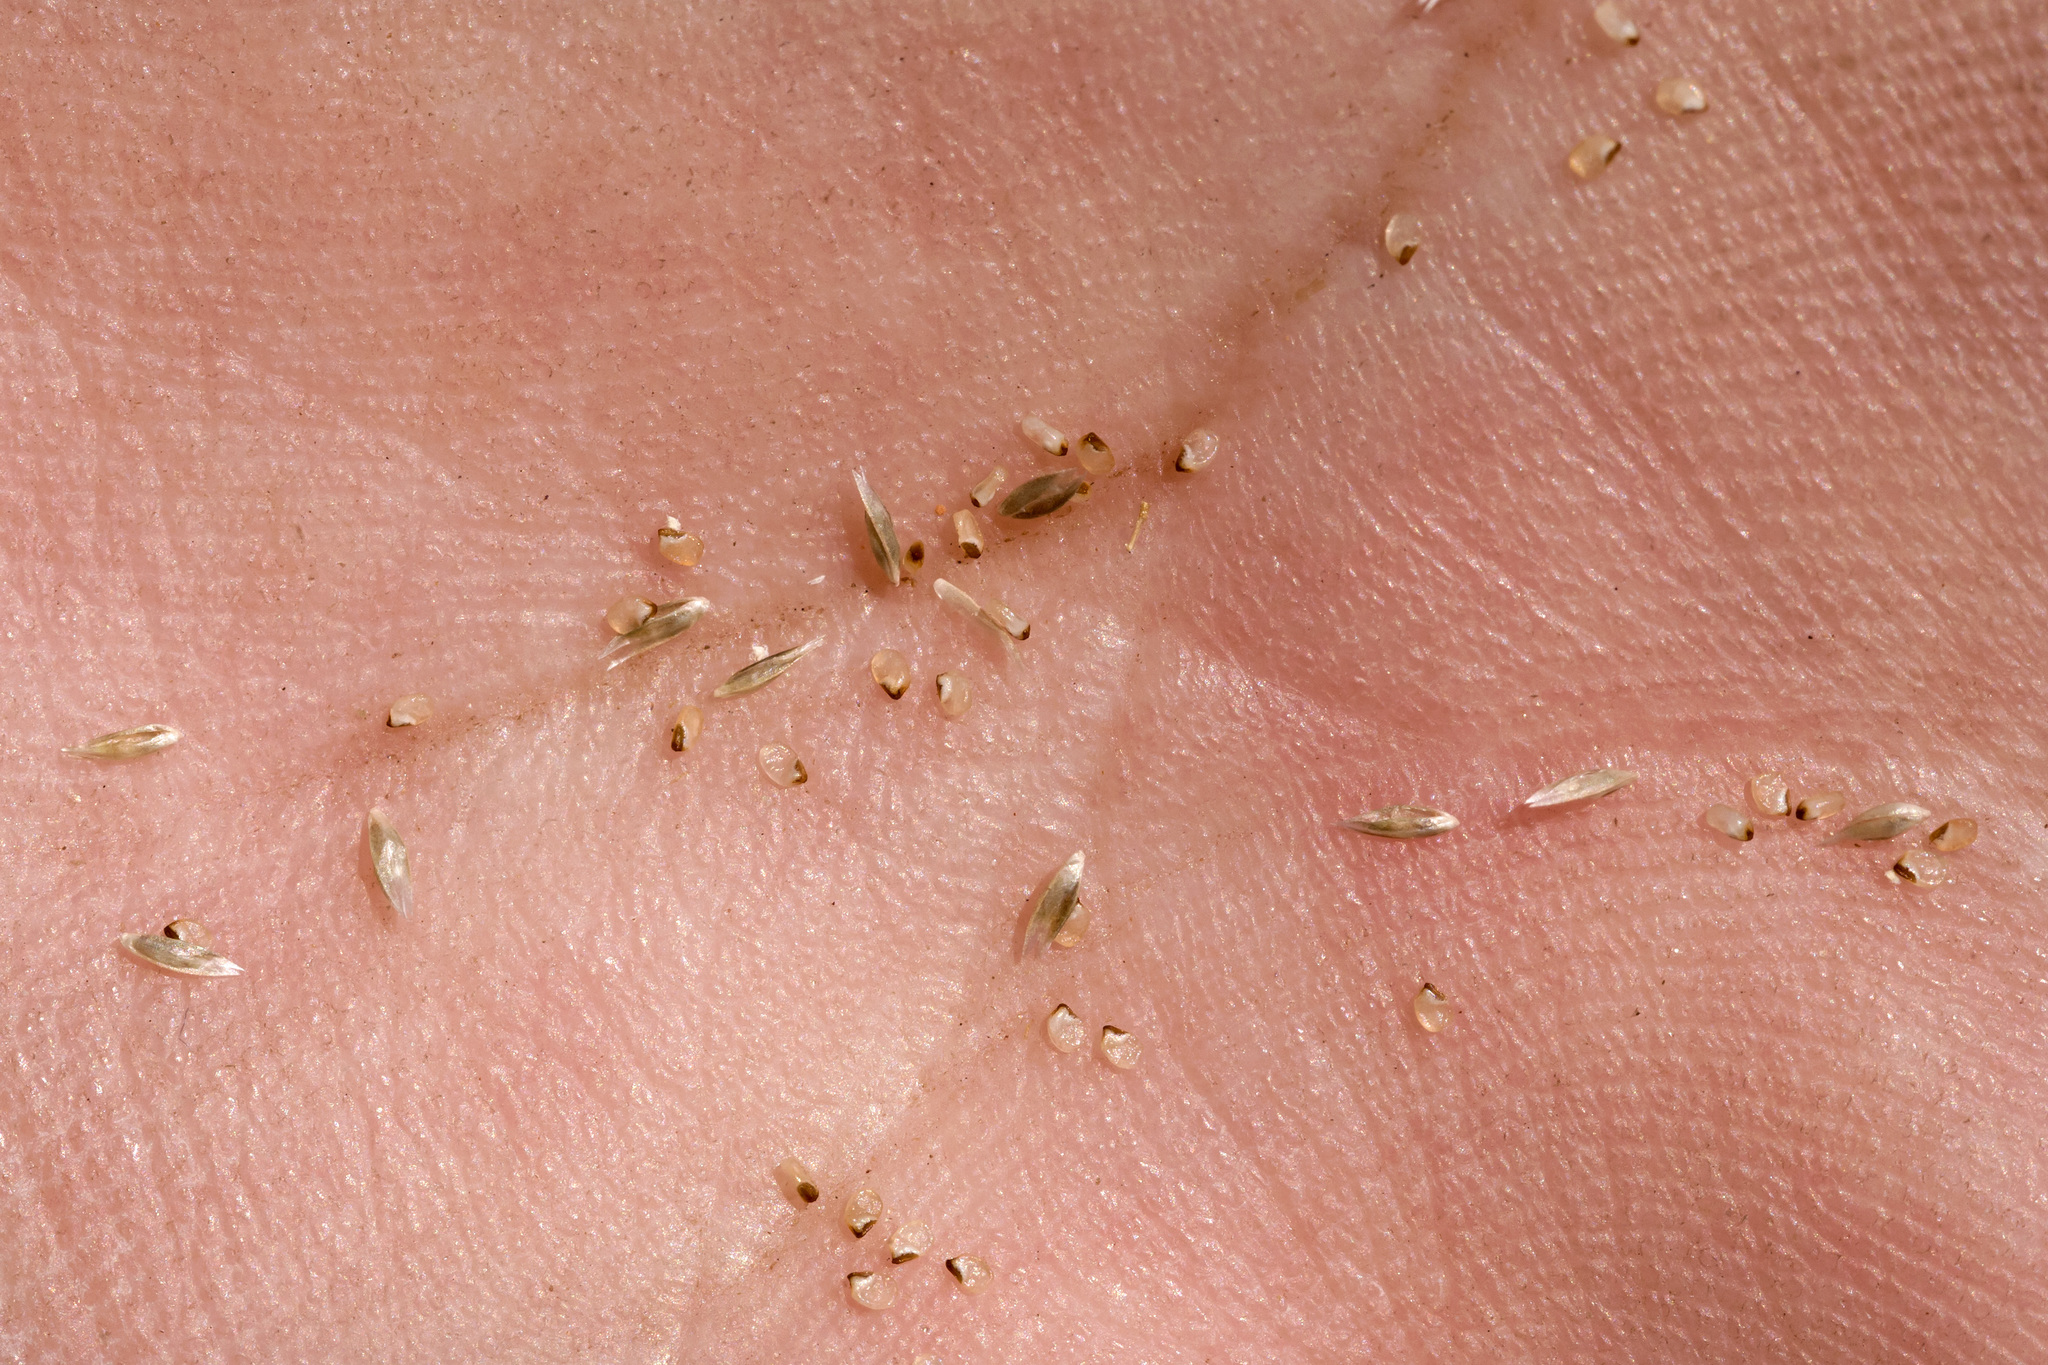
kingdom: Plantae
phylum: Tracheophyta
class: Liliopsida
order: Poales
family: Poaceae
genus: Sporobolus
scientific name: Sporobolus flexuosus
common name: Mesa dropseed
